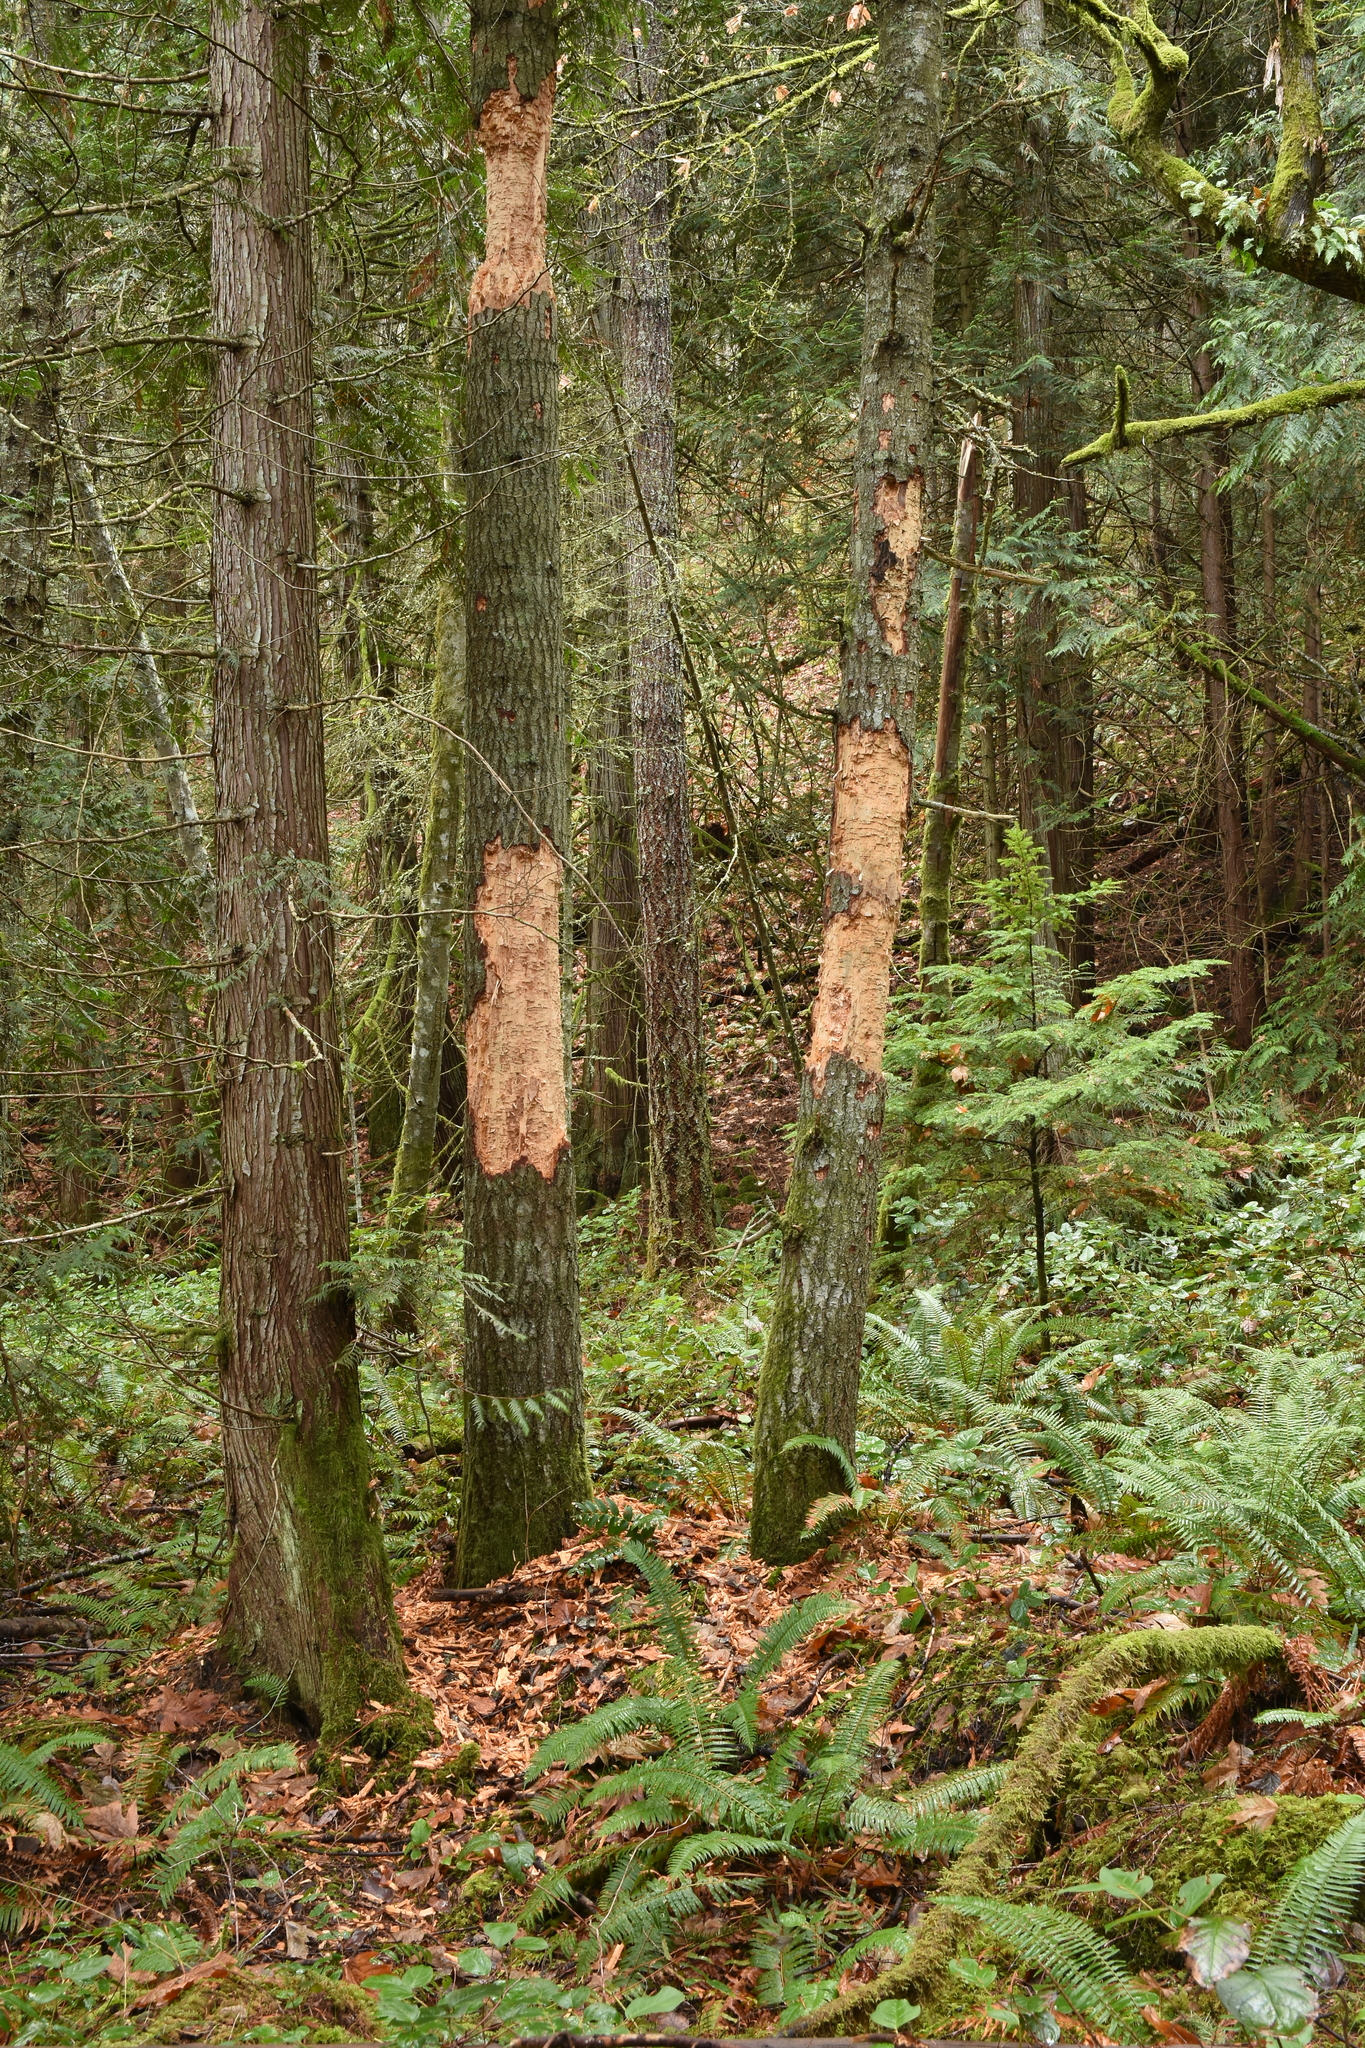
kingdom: Animalia
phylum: Chordata
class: Aves
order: Piciformes
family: Picidae
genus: Dryocopus
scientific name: Dryocopus pileatus
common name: Pileated woodpecker
